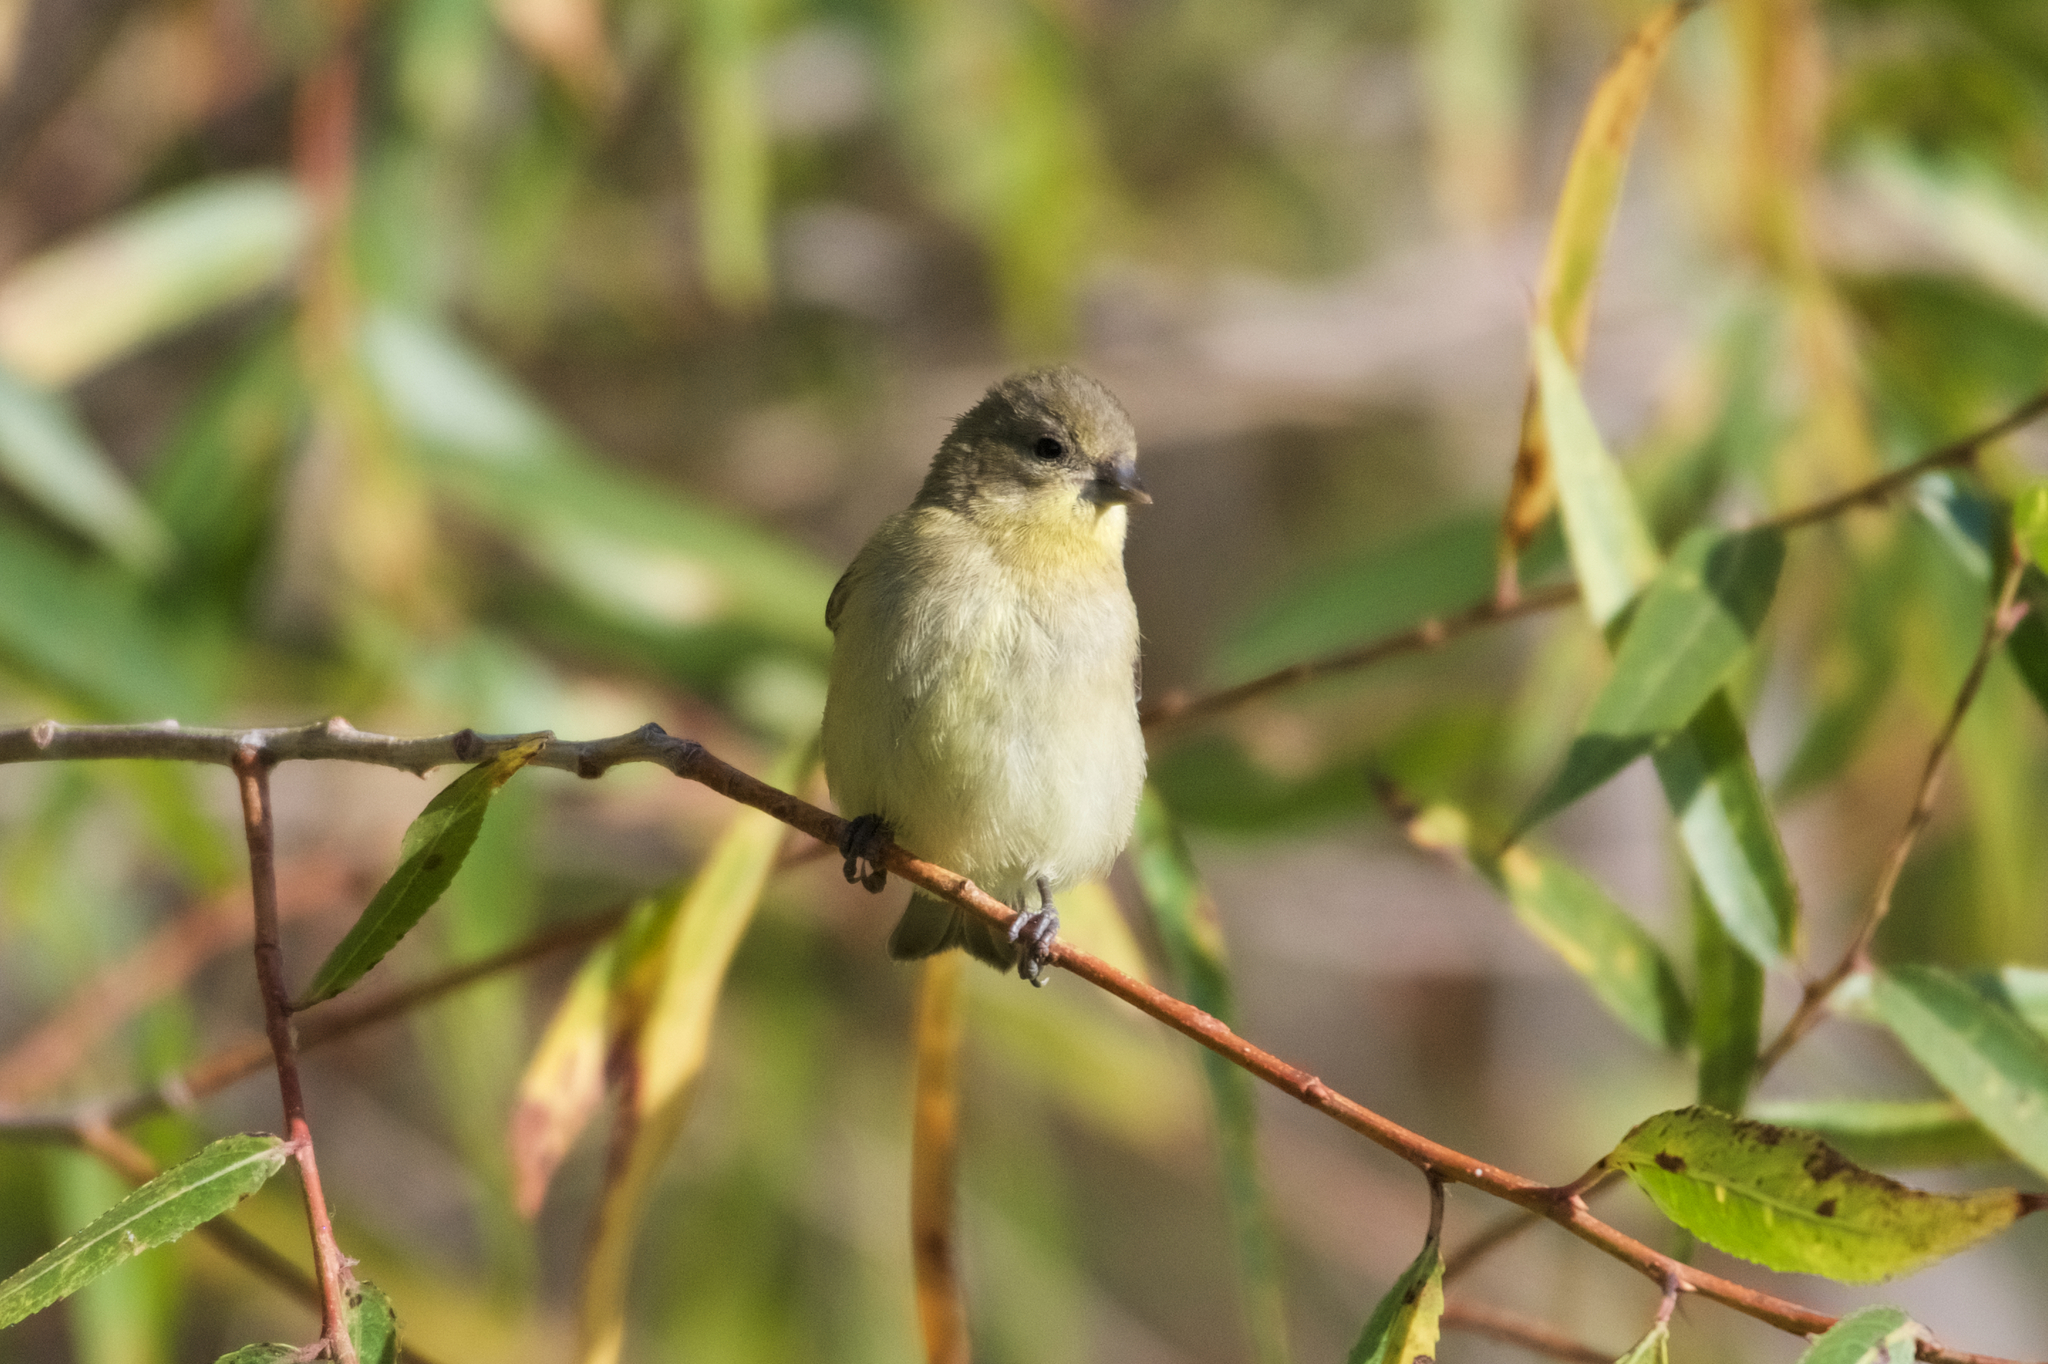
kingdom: Animalia
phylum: Chordata
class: Aves
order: Passeriformes
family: Fringillidae
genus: Spinus
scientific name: Spinus psaltria
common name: Lesser goldfinch
